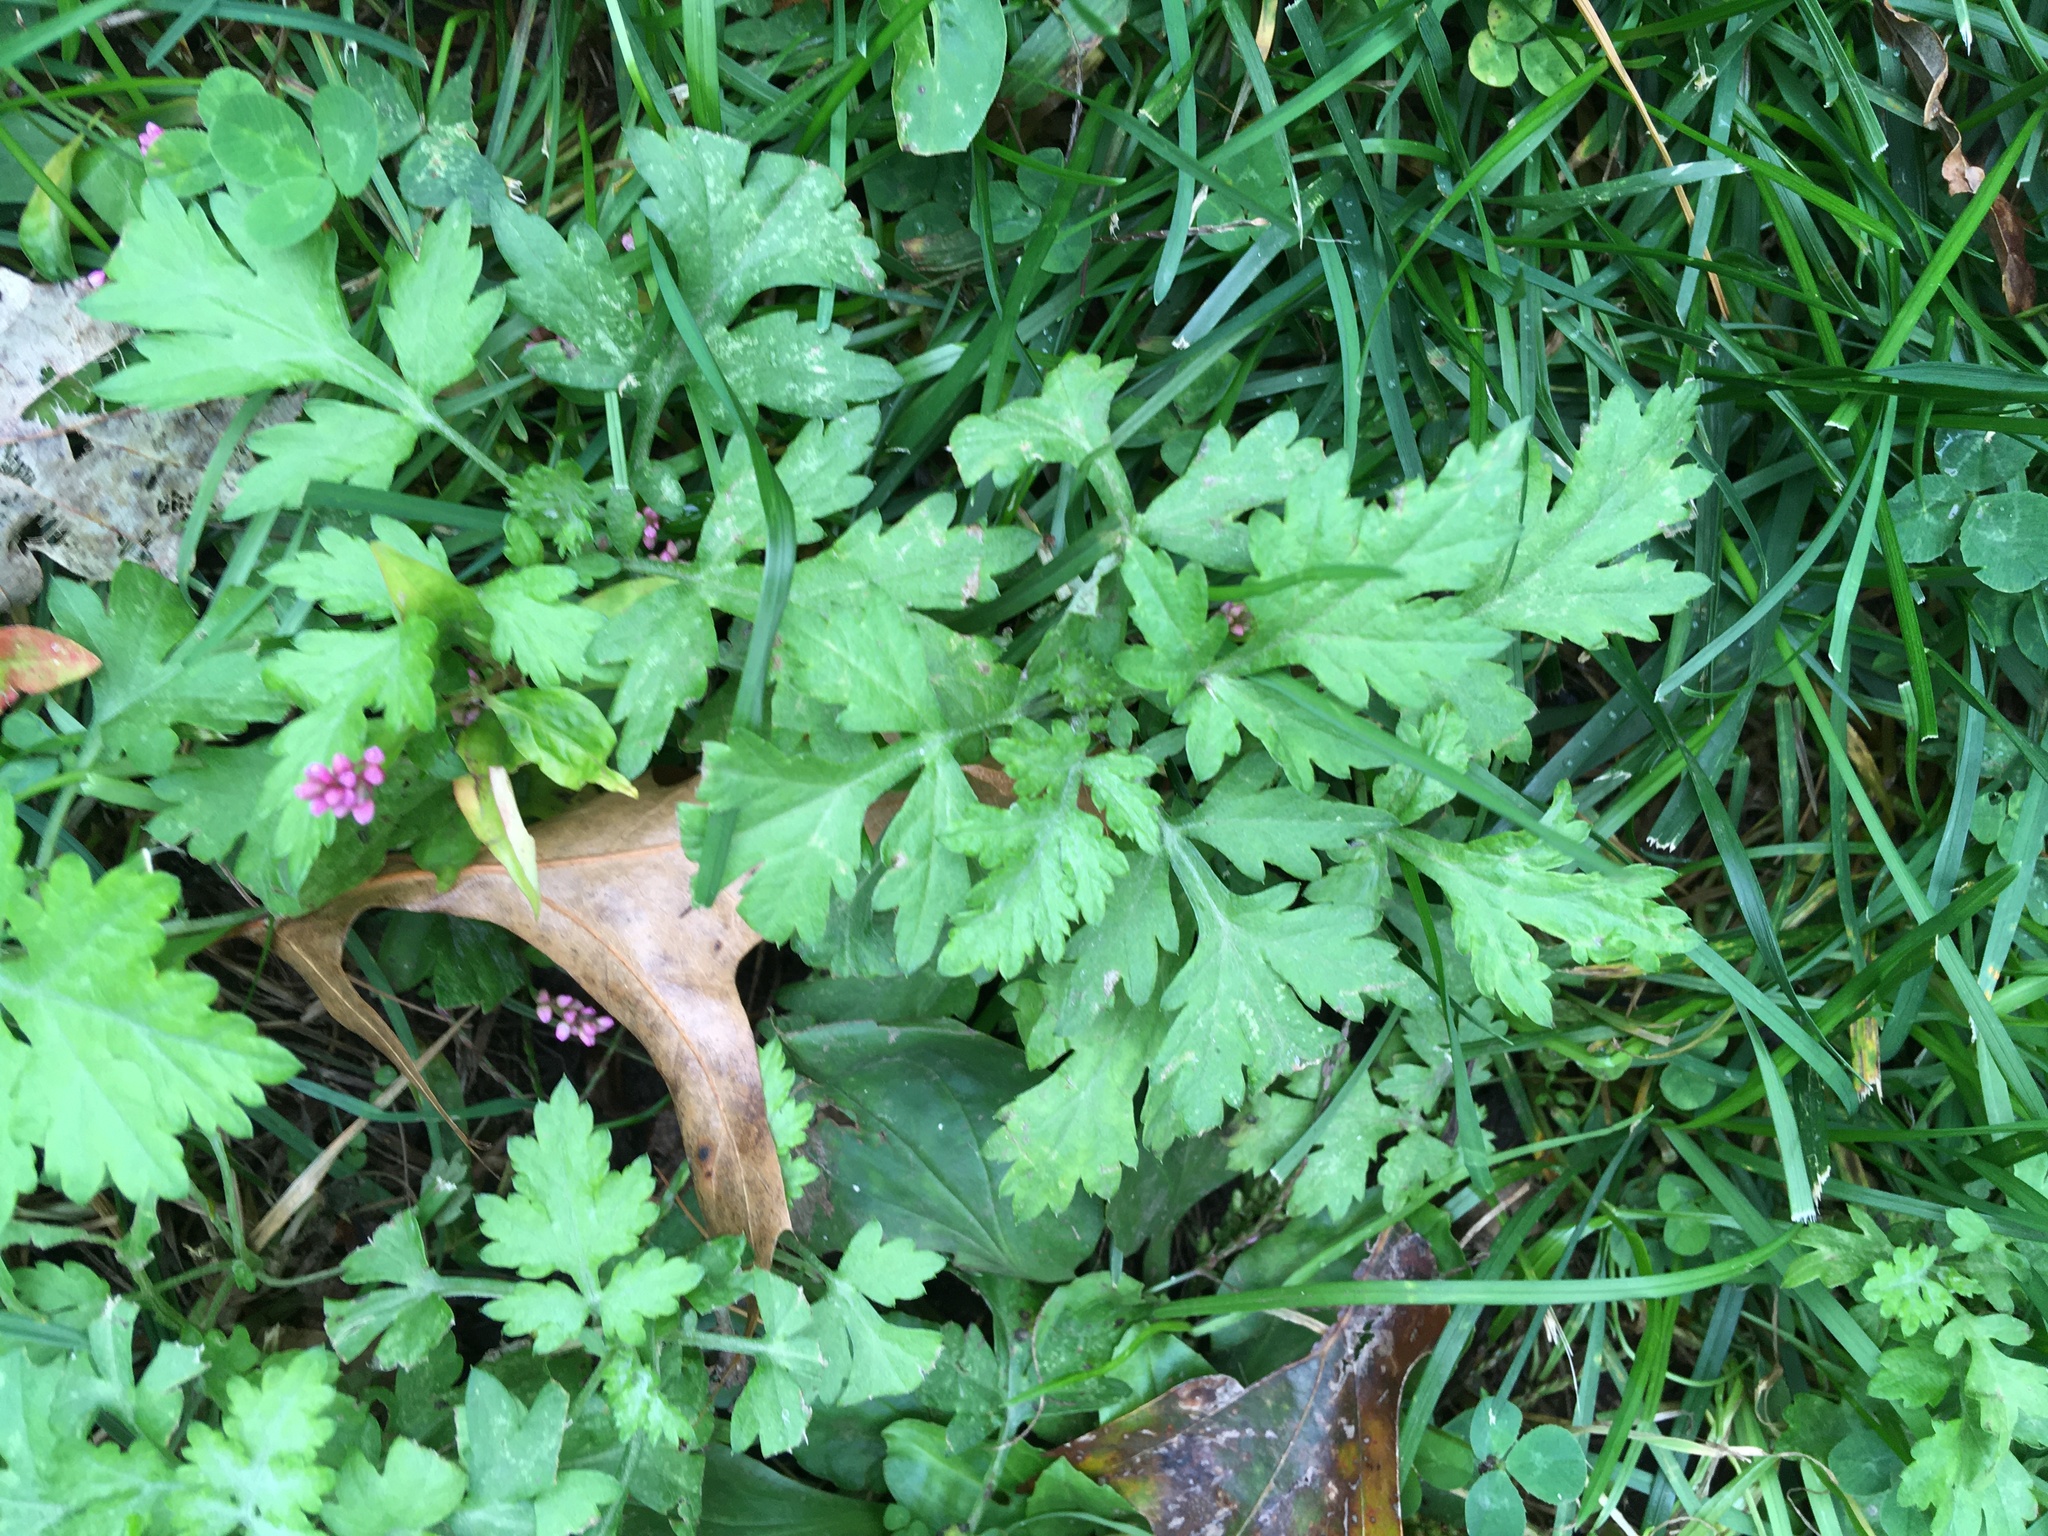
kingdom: Plantae
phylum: Tracheophyta
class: Magnoliopsida
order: Asterales
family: Asteraceae
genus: Artemisia
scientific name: Artemisia vulgaris
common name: Mugwort
